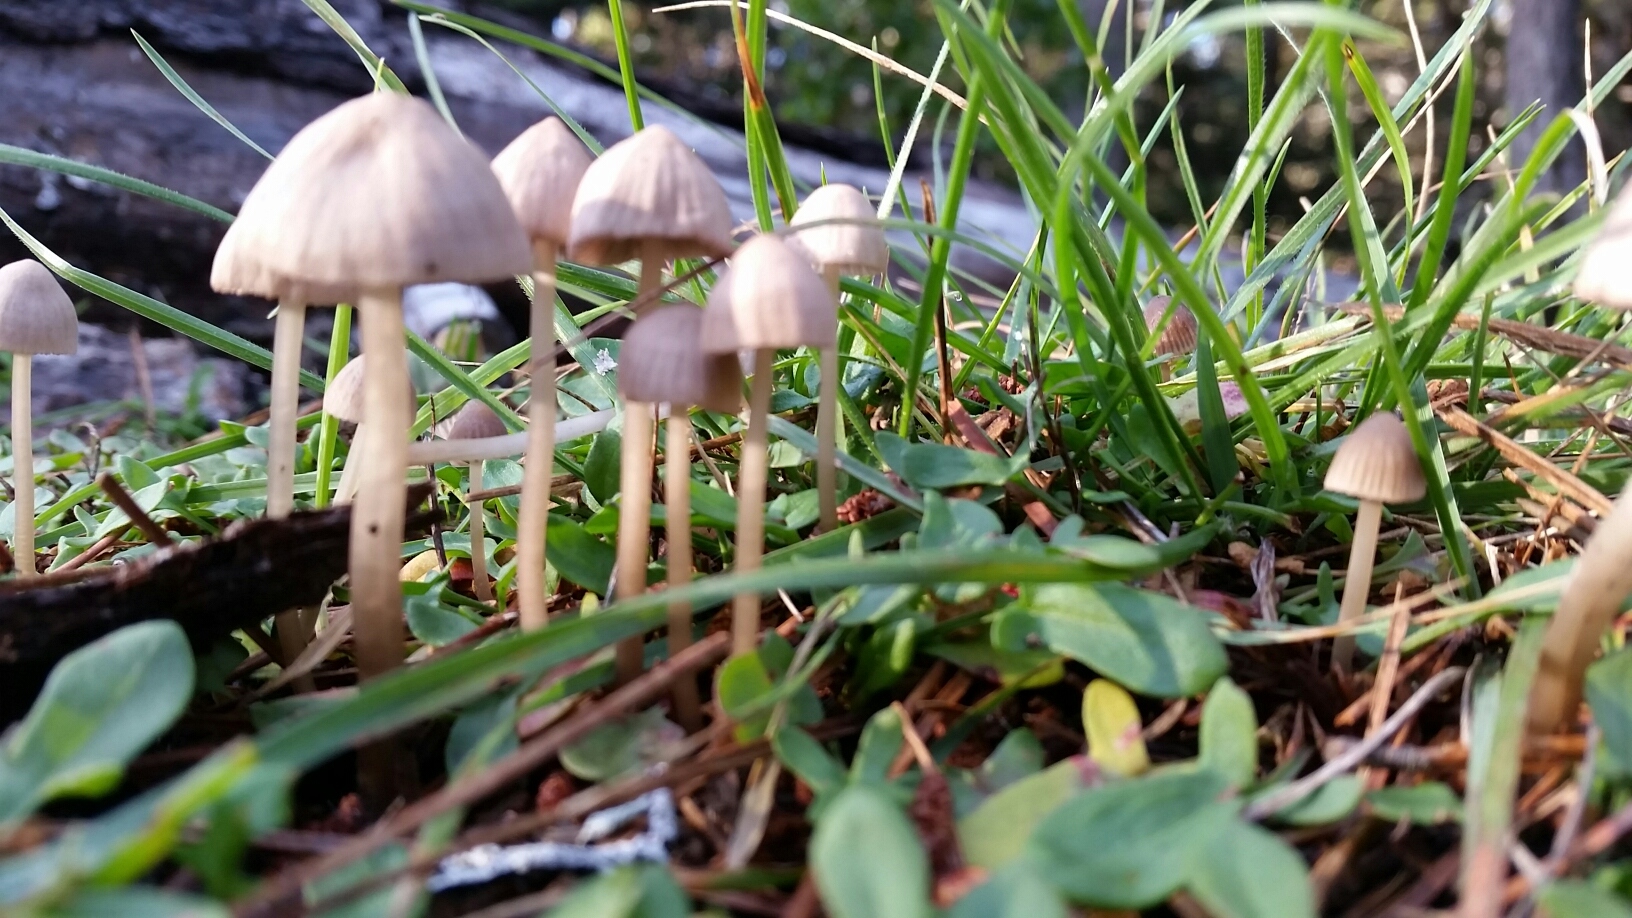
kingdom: Fungi
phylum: Basidiomycota
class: Agaricomycetes
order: Agaricales
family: Mycenaceae
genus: Mycena
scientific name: Mycena capillaripes
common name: Pinkedge bonnet
